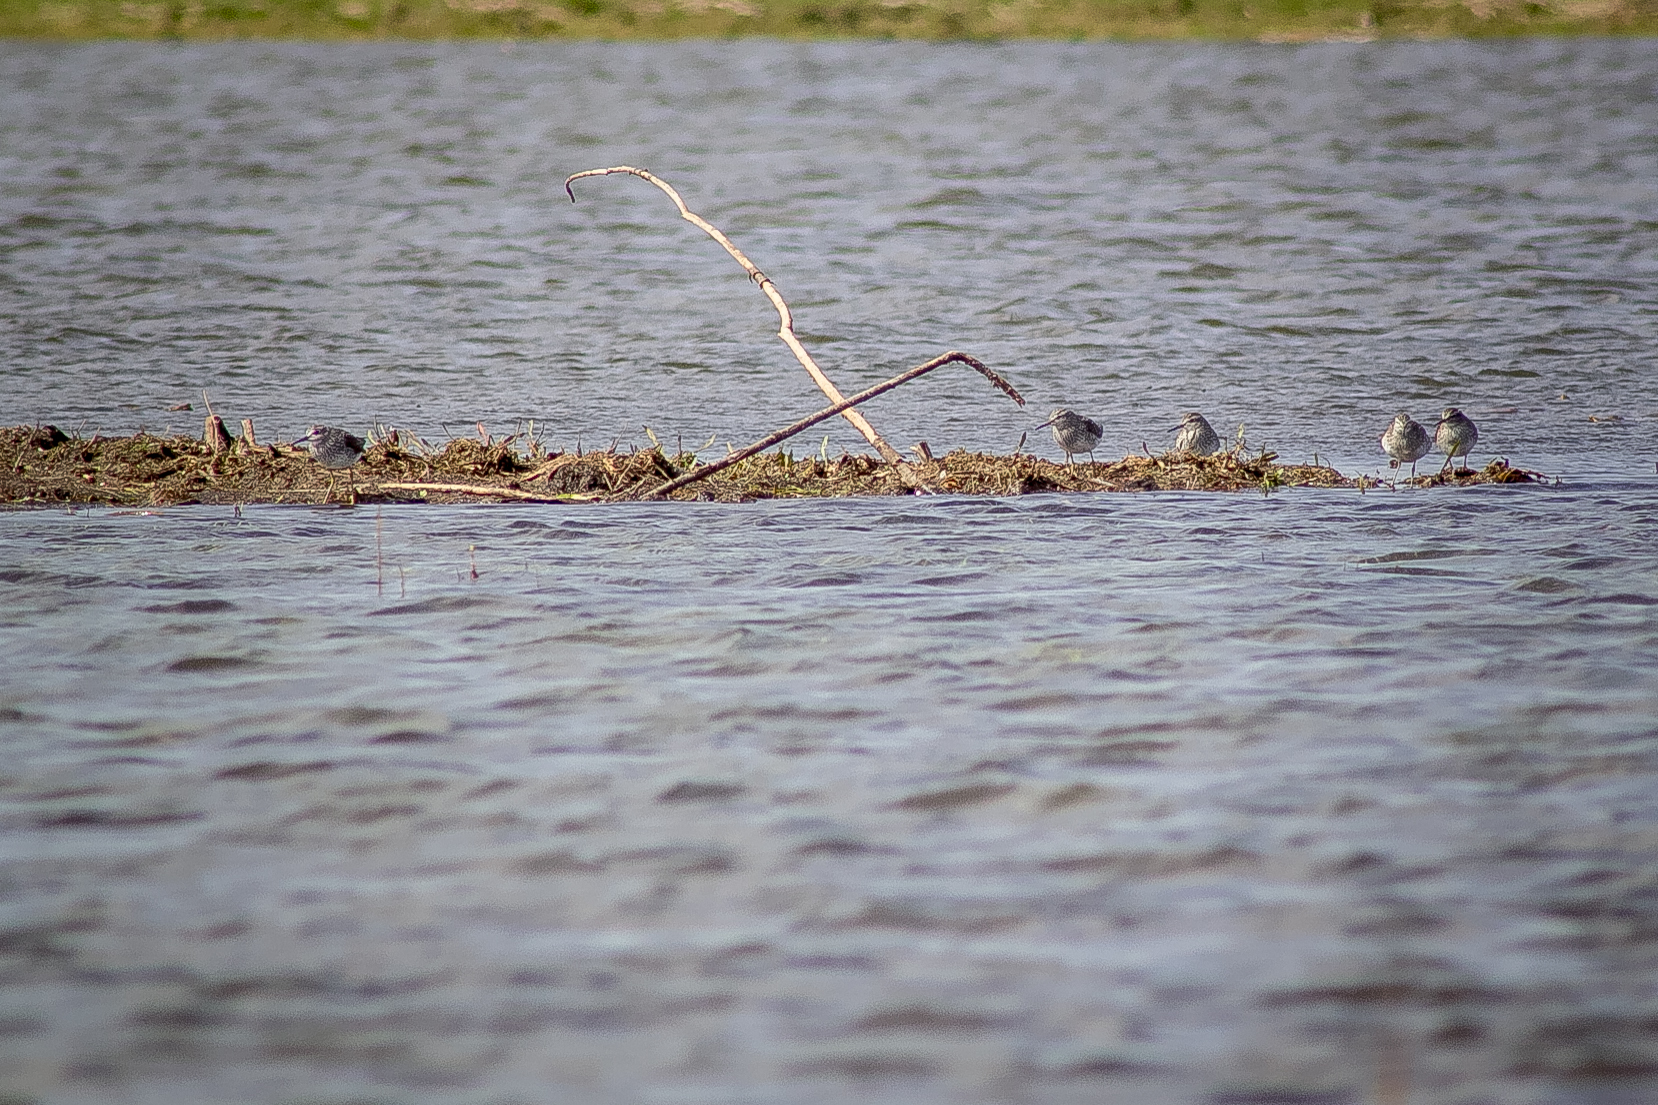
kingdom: Animalia
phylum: Chordata
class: Aves
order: Charadriiformes
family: Scolopacidae
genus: Tringa
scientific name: Tringa glareola
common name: Wood sandpiper
